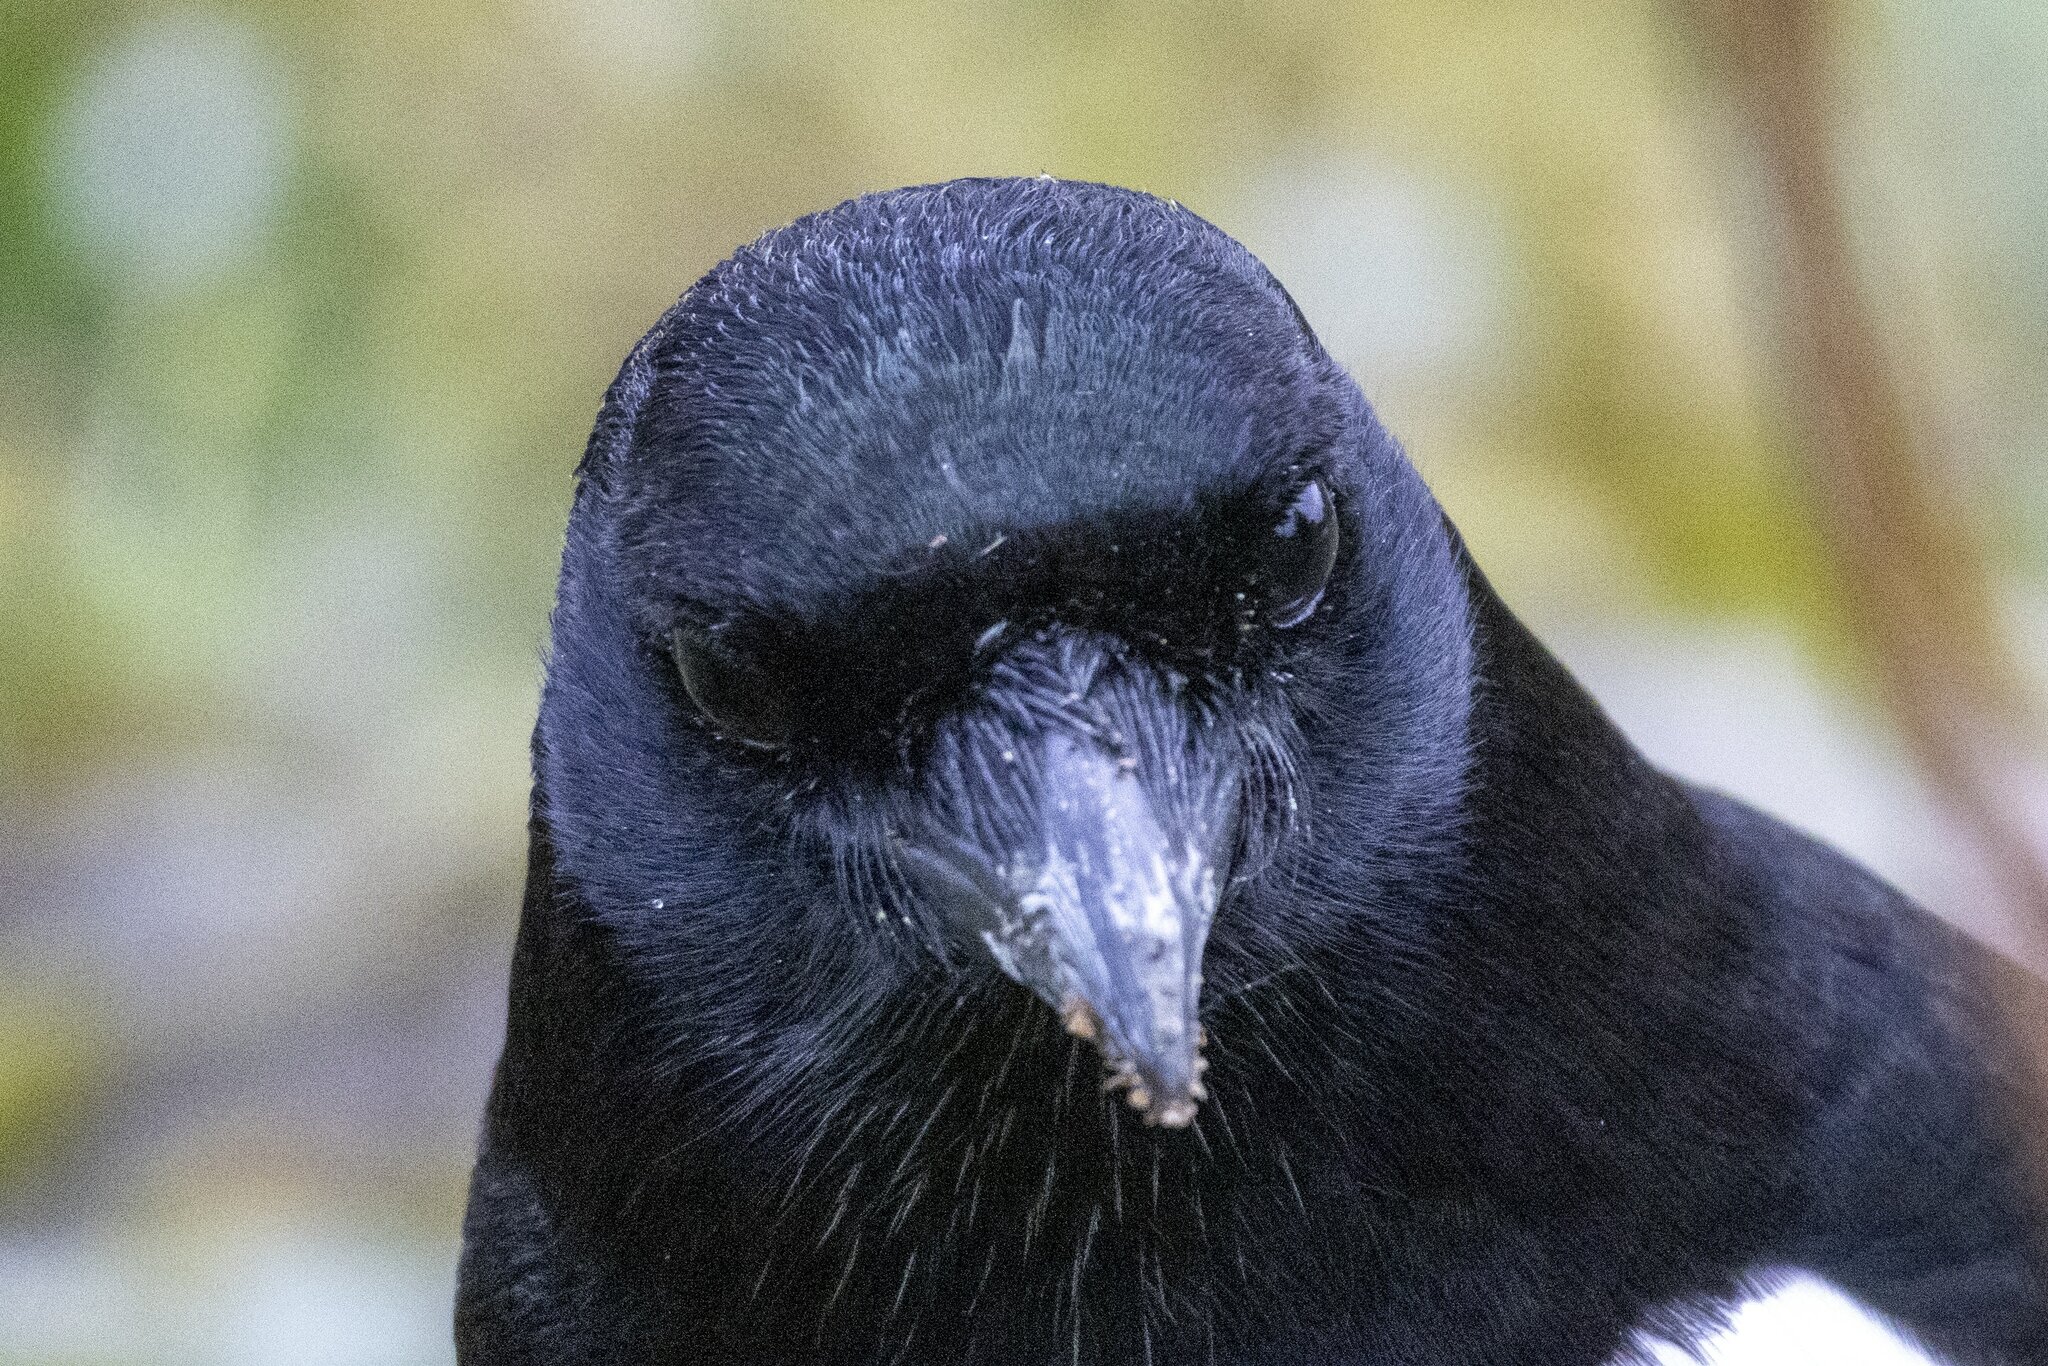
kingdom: Animalia
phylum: Chordata
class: Aves
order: Passeriformes
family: Corvidae
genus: Pica
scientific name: Pica pica
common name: Eurasian magpie
